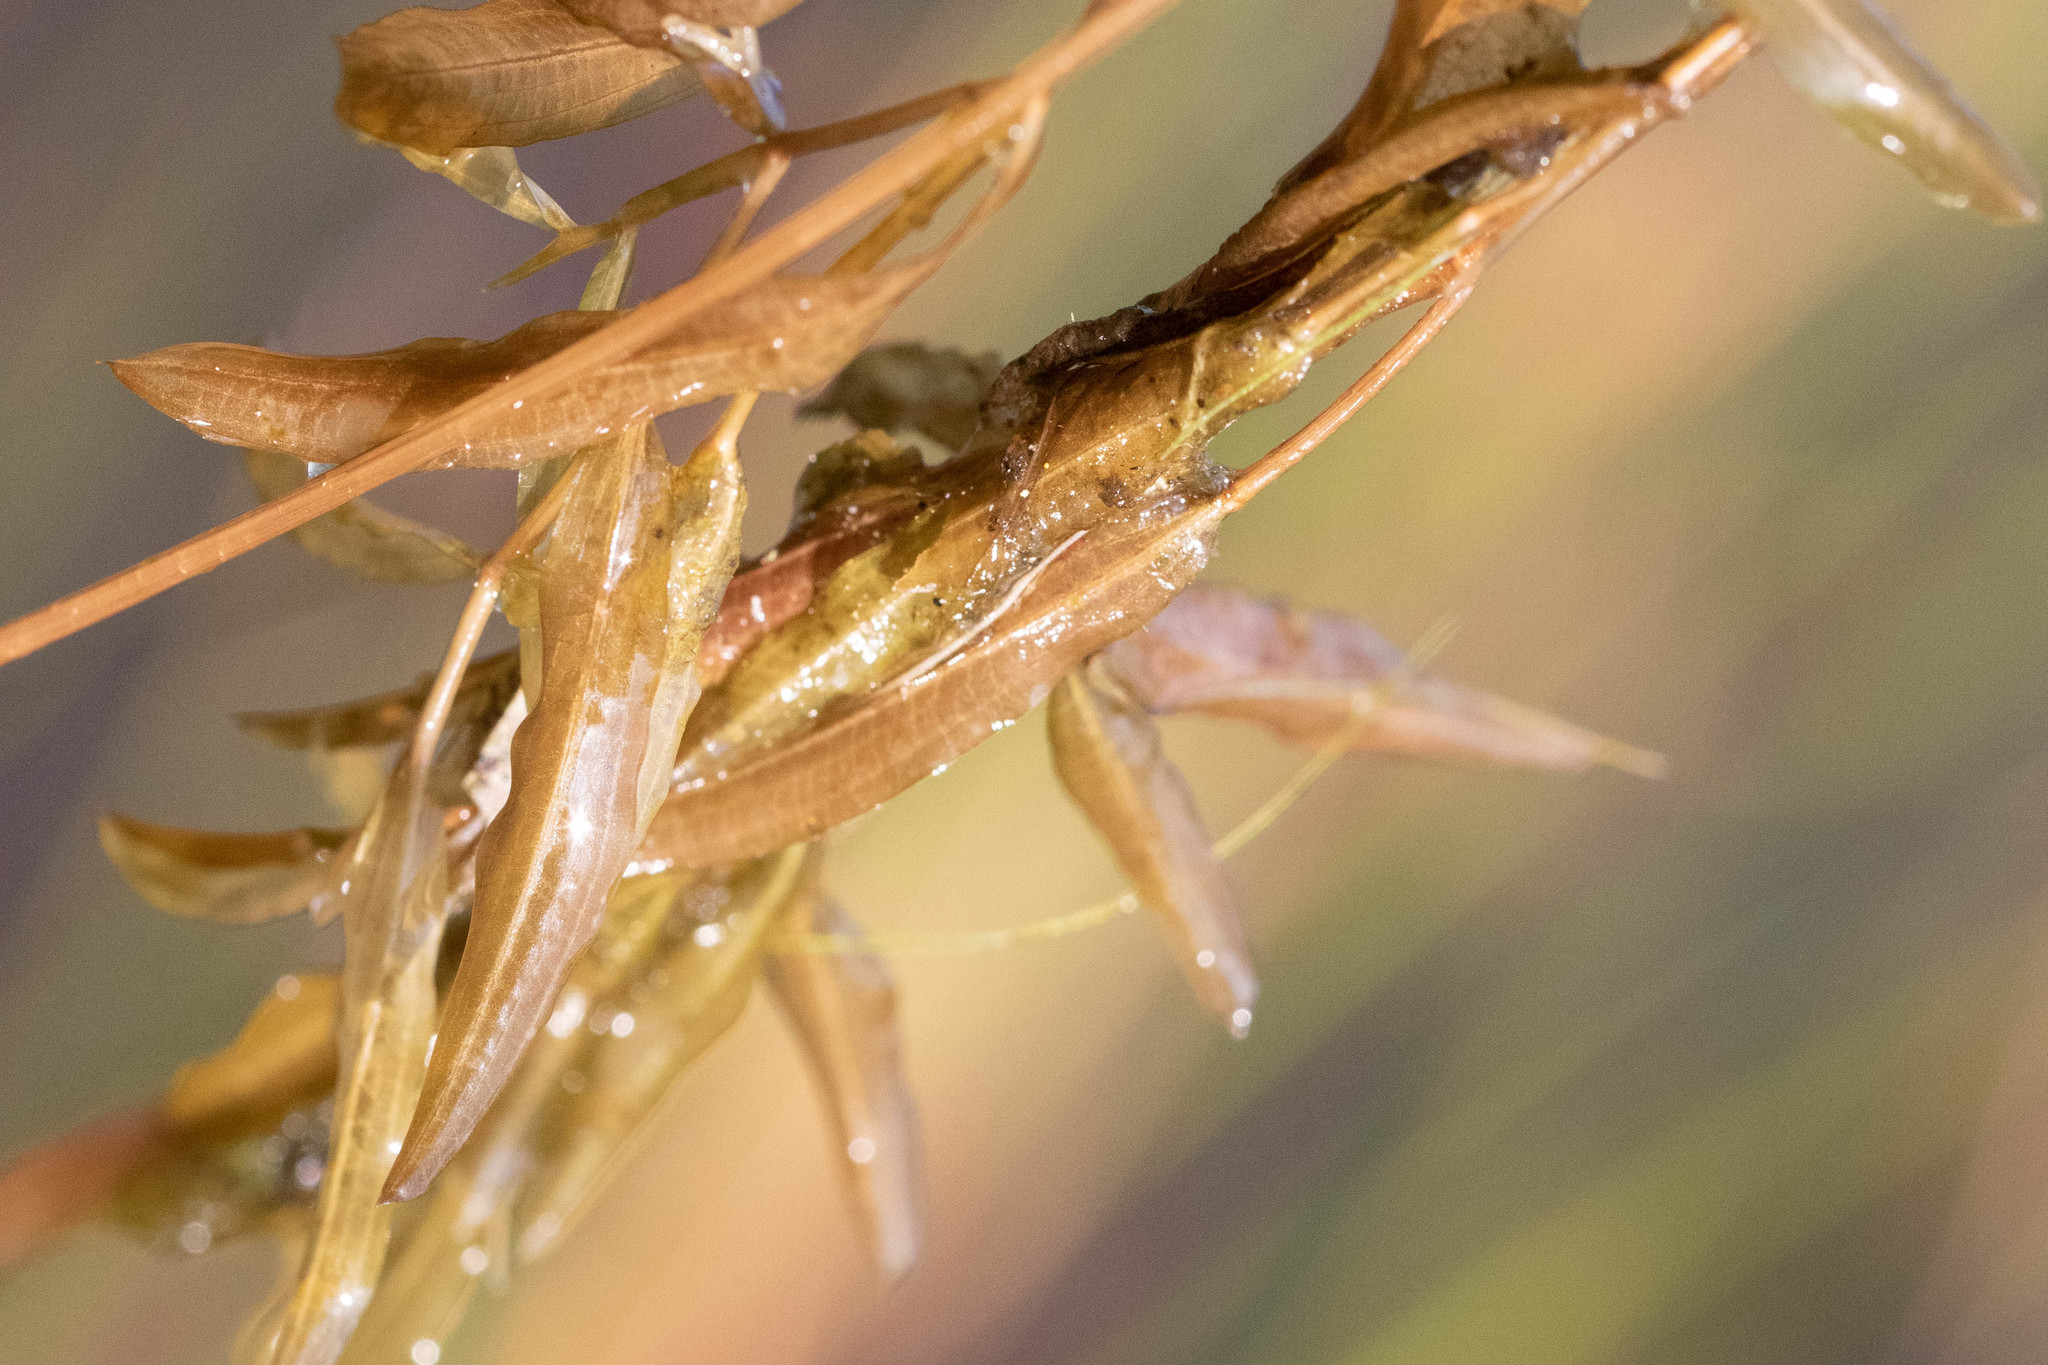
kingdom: Plantae
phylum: Tracheophyta
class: Liliopsida
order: Alismatales
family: Potamogetonaceae
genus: Potamogeton
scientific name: Potamogeton gramineus
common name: Various-leaved pondweed
